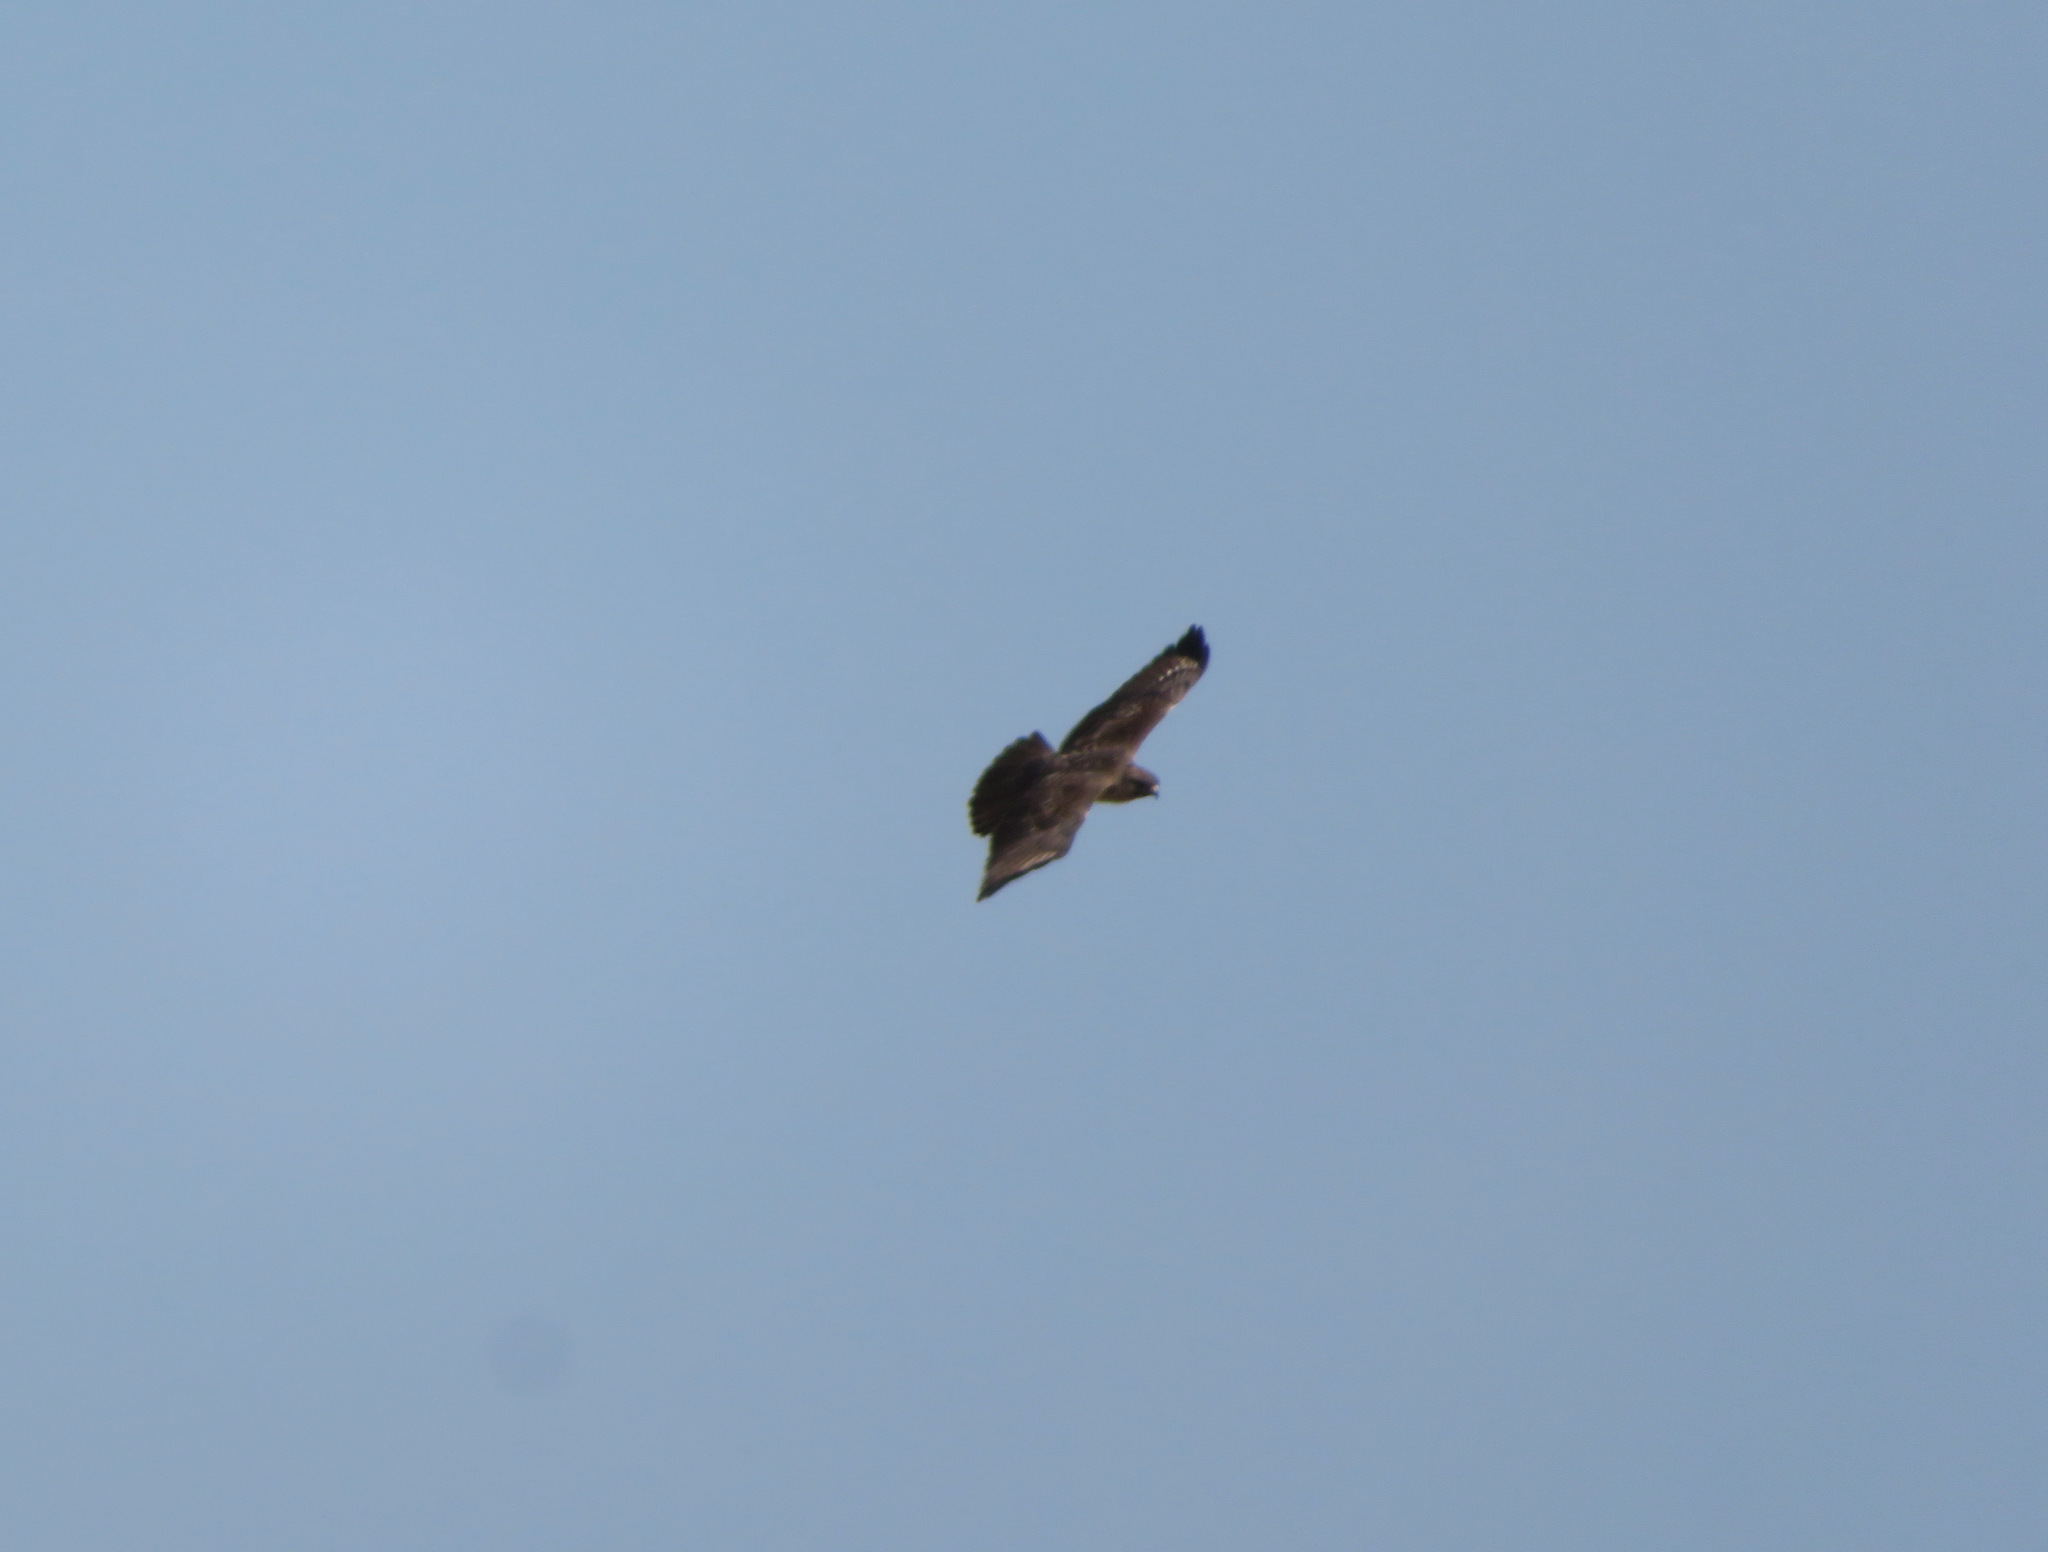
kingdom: Animalia
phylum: Chordata
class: Aves
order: Accipitriformes
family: Accipitridae
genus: Buteo
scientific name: Buteo japonicus
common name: Eastern buzzard
